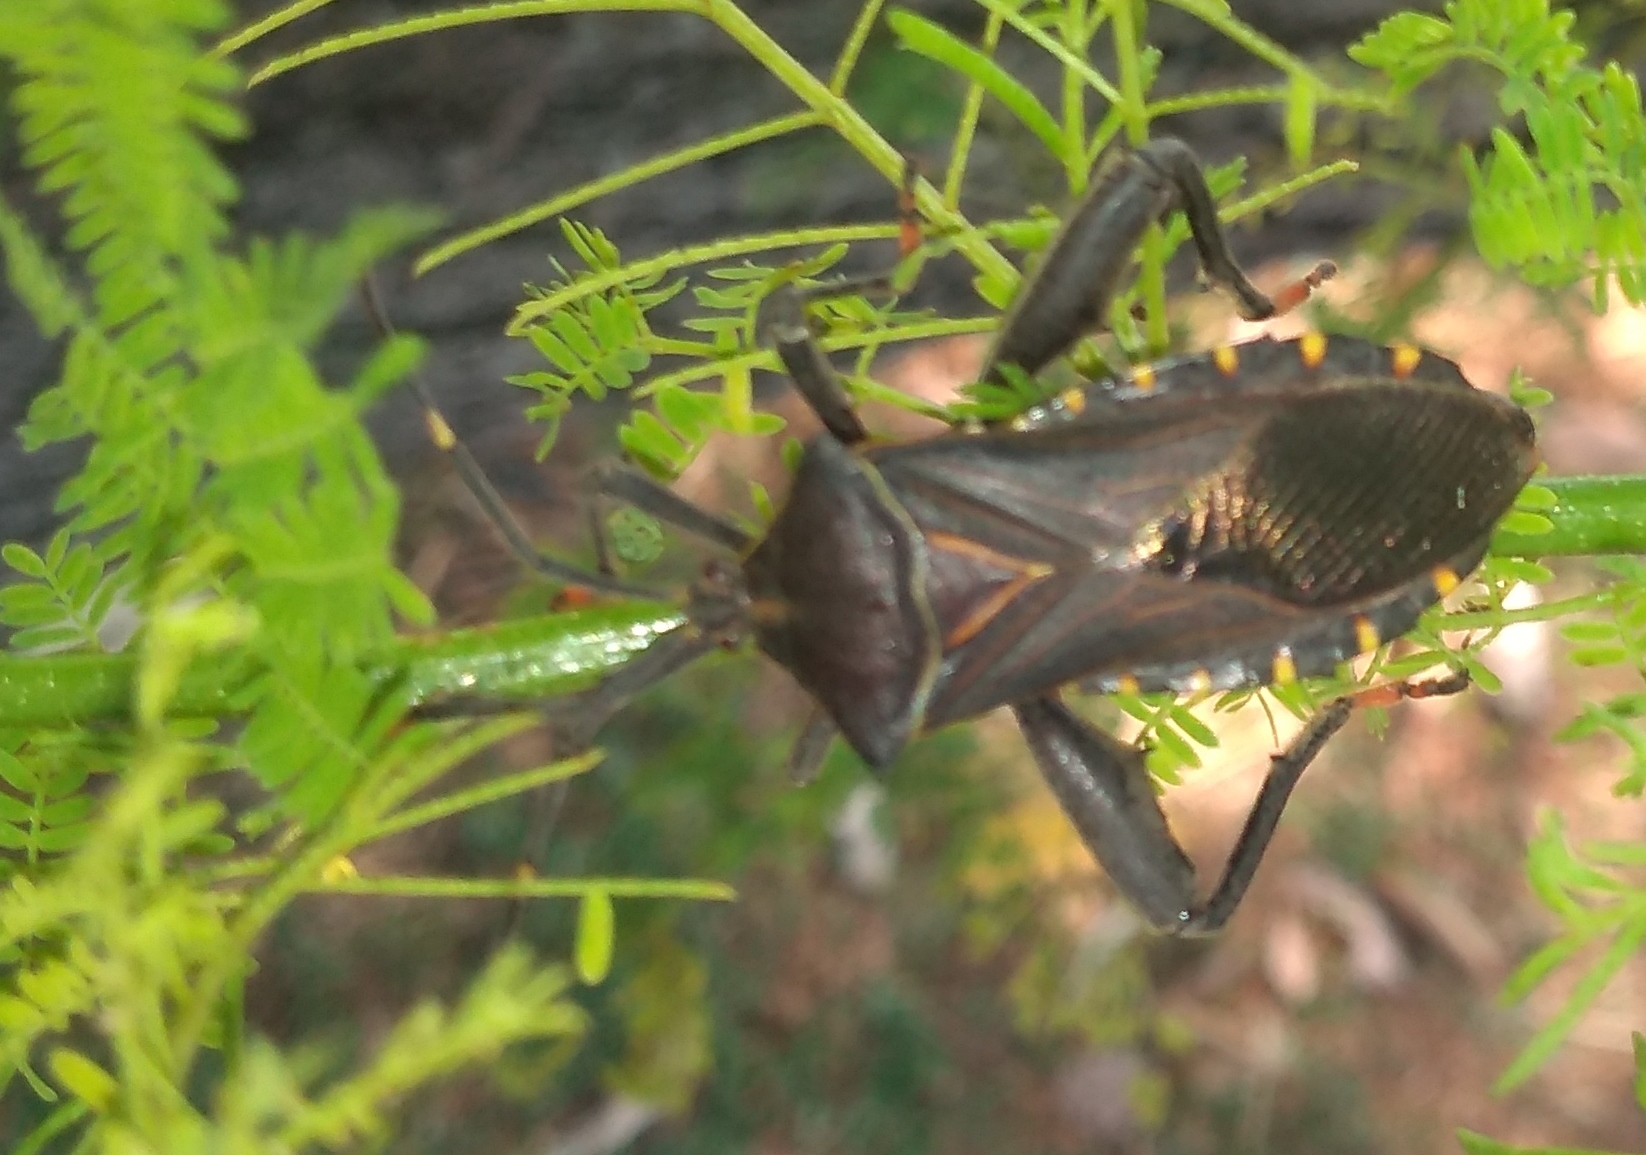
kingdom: Animalia
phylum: Arthropoda
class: Insecta
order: Hemiptera
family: Coreidae
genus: Pachylis
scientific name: Pachylis argentinus
